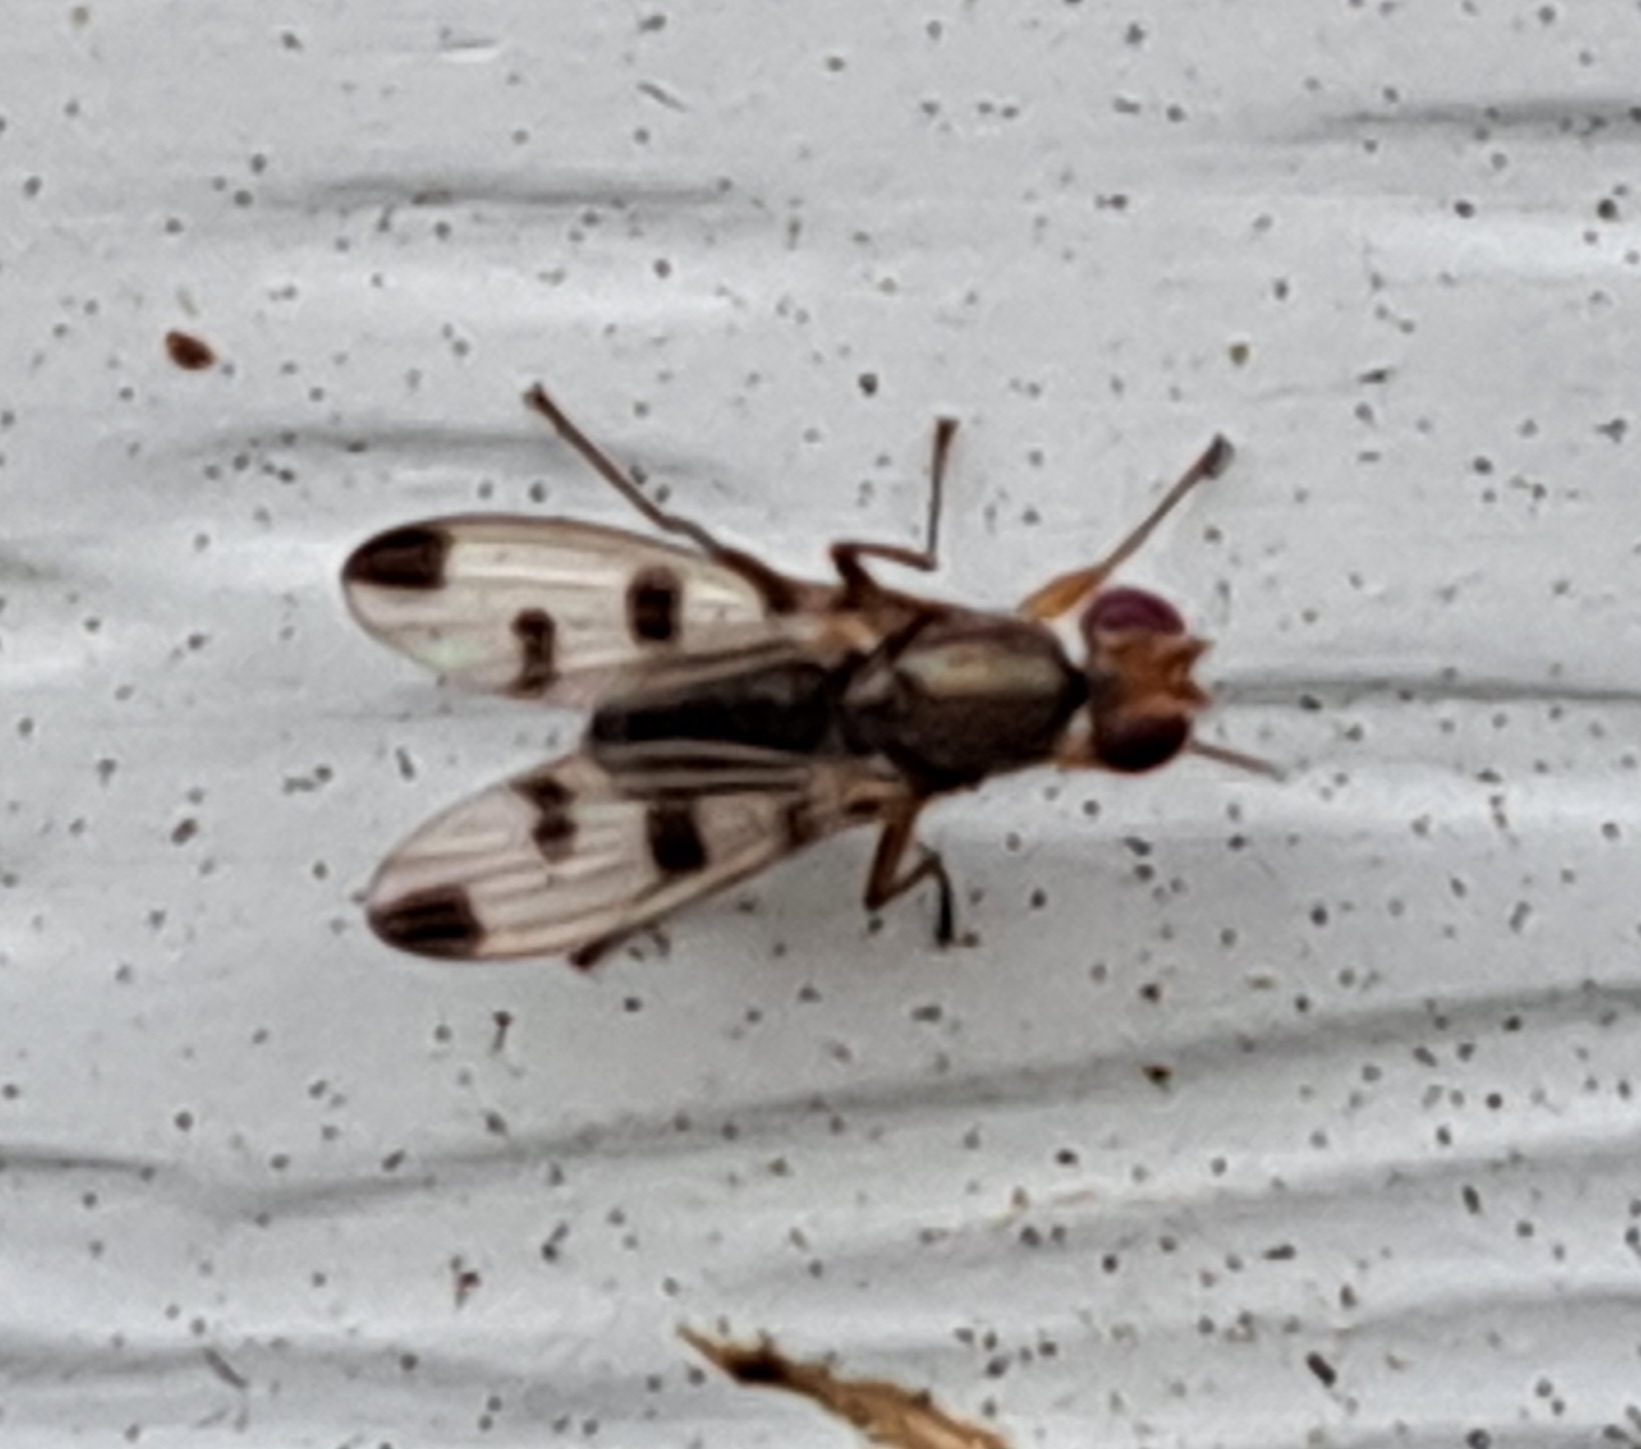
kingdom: Animalia
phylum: Arthropoda
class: Insecta
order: Diptera
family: Opomyzidae
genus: Geomyza
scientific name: Geomyza tripunctata
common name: Cereal fly
